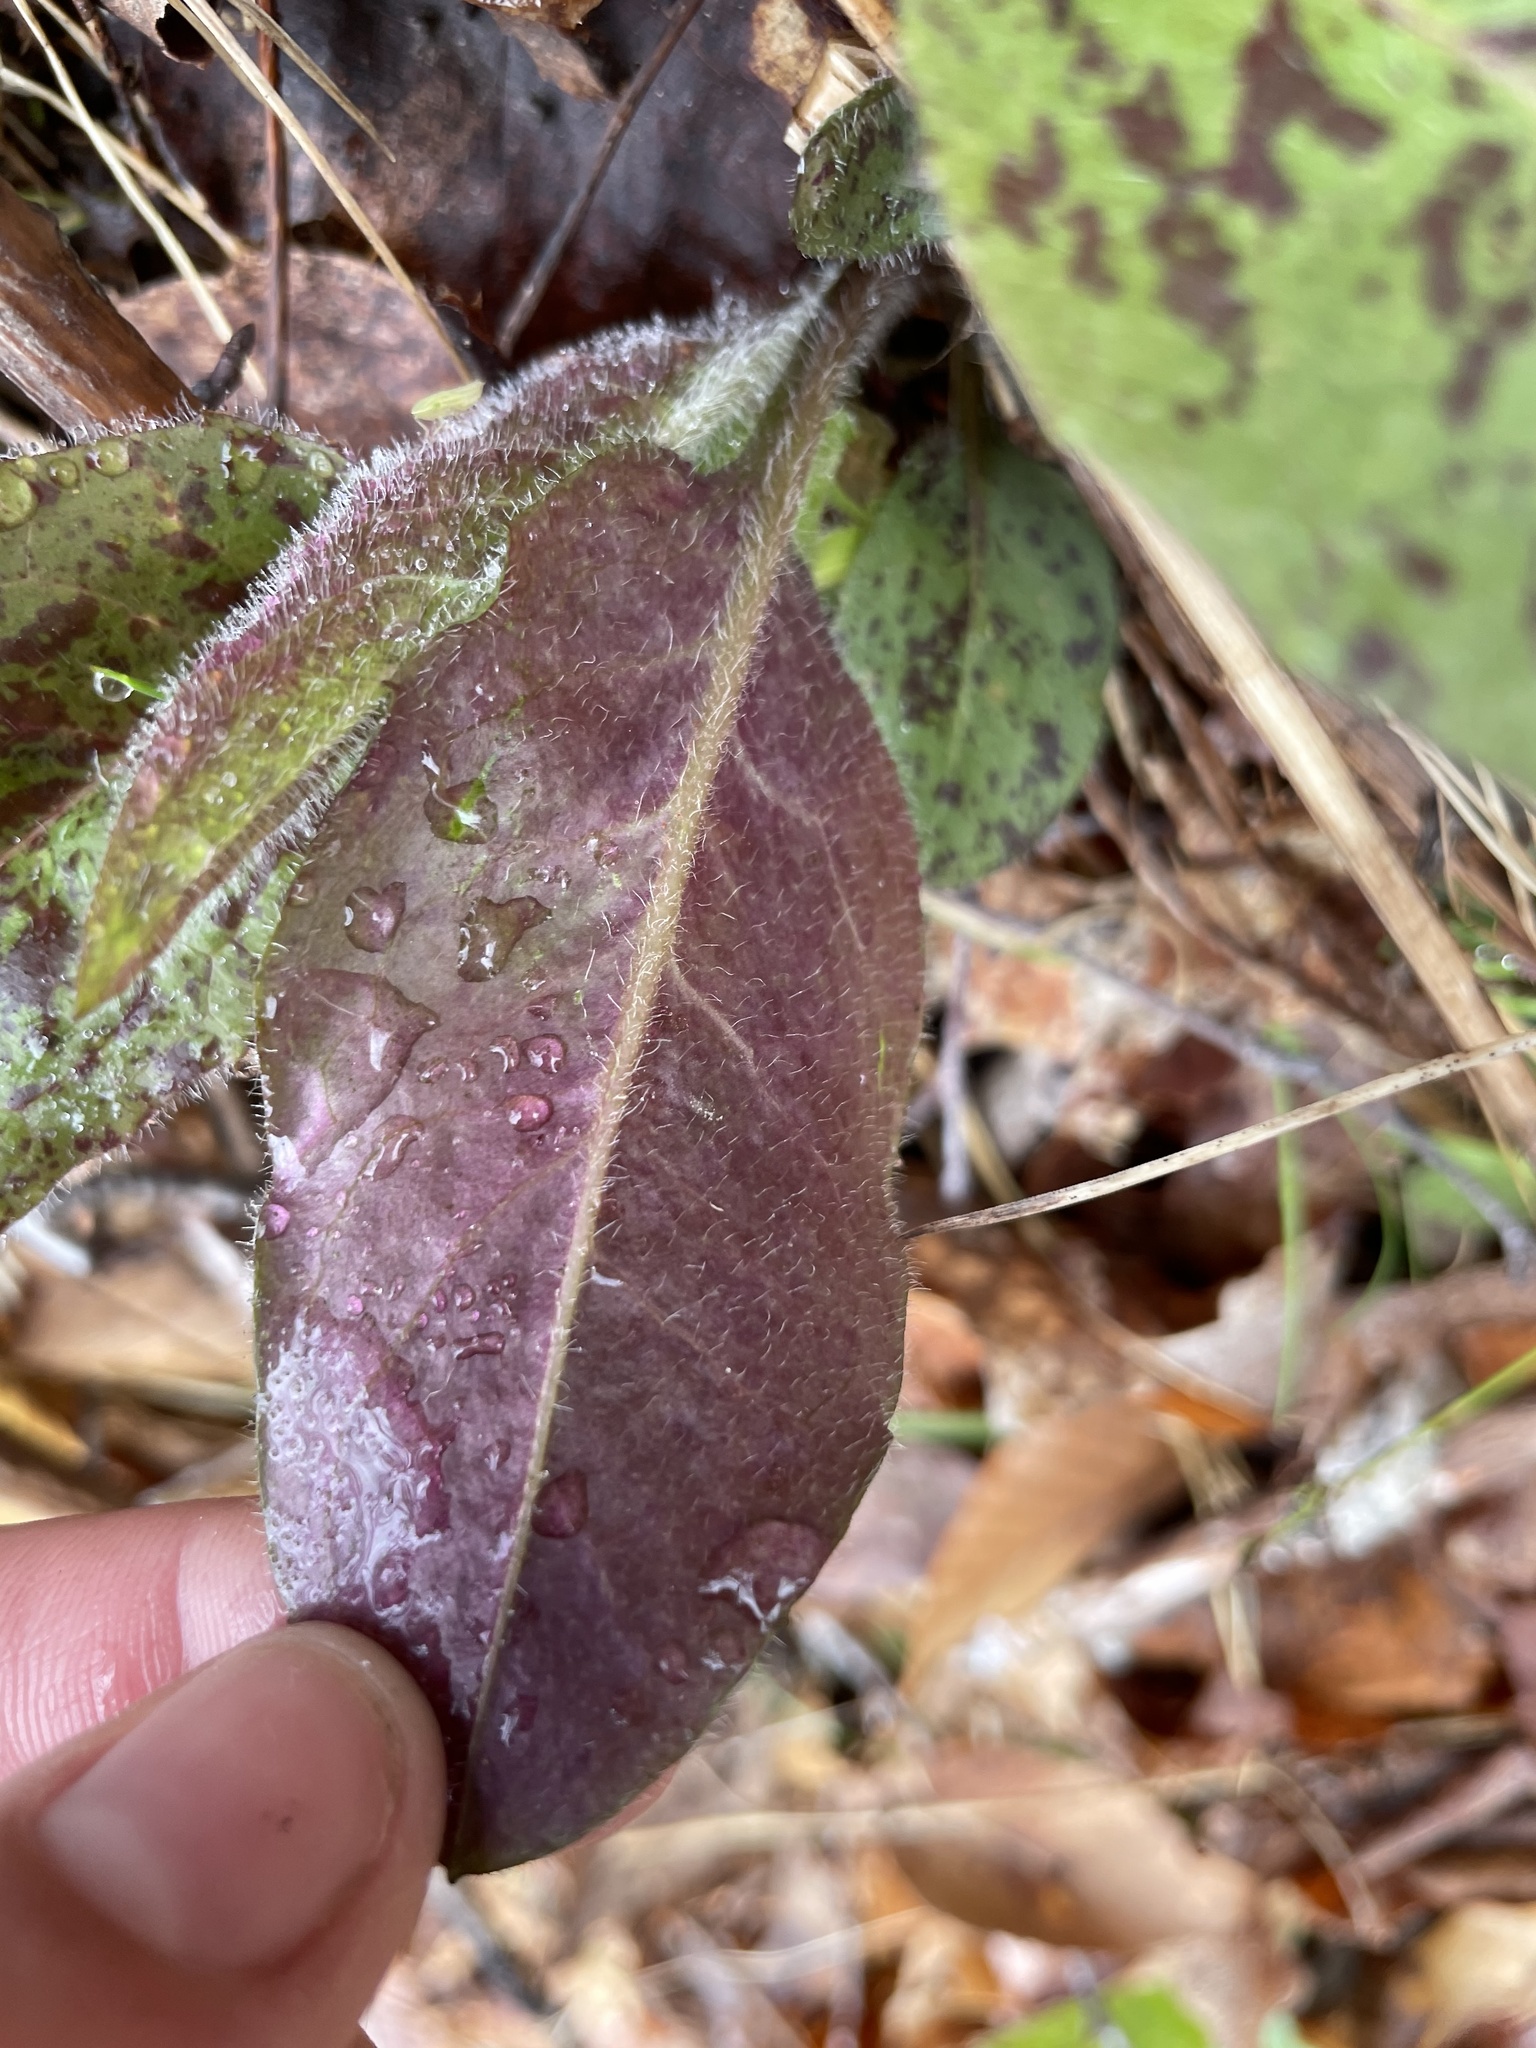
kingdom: Plantae
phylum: Tracheophyta
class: Magnoliopsida
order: Asterales
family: Asteraceae
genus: Hieracium
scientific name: Hieracium lachenalii
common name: Common hawkweed
